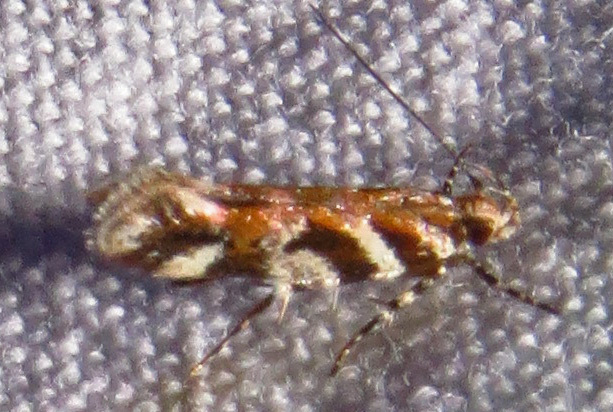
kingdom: Animalia
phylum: Arthropoda
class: Insecta
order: Lepidoptera
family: Gelechiidae
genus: Aristotelia
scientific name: Aristotelia roseosuffusella
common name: Pink-washed aristotelia moth
